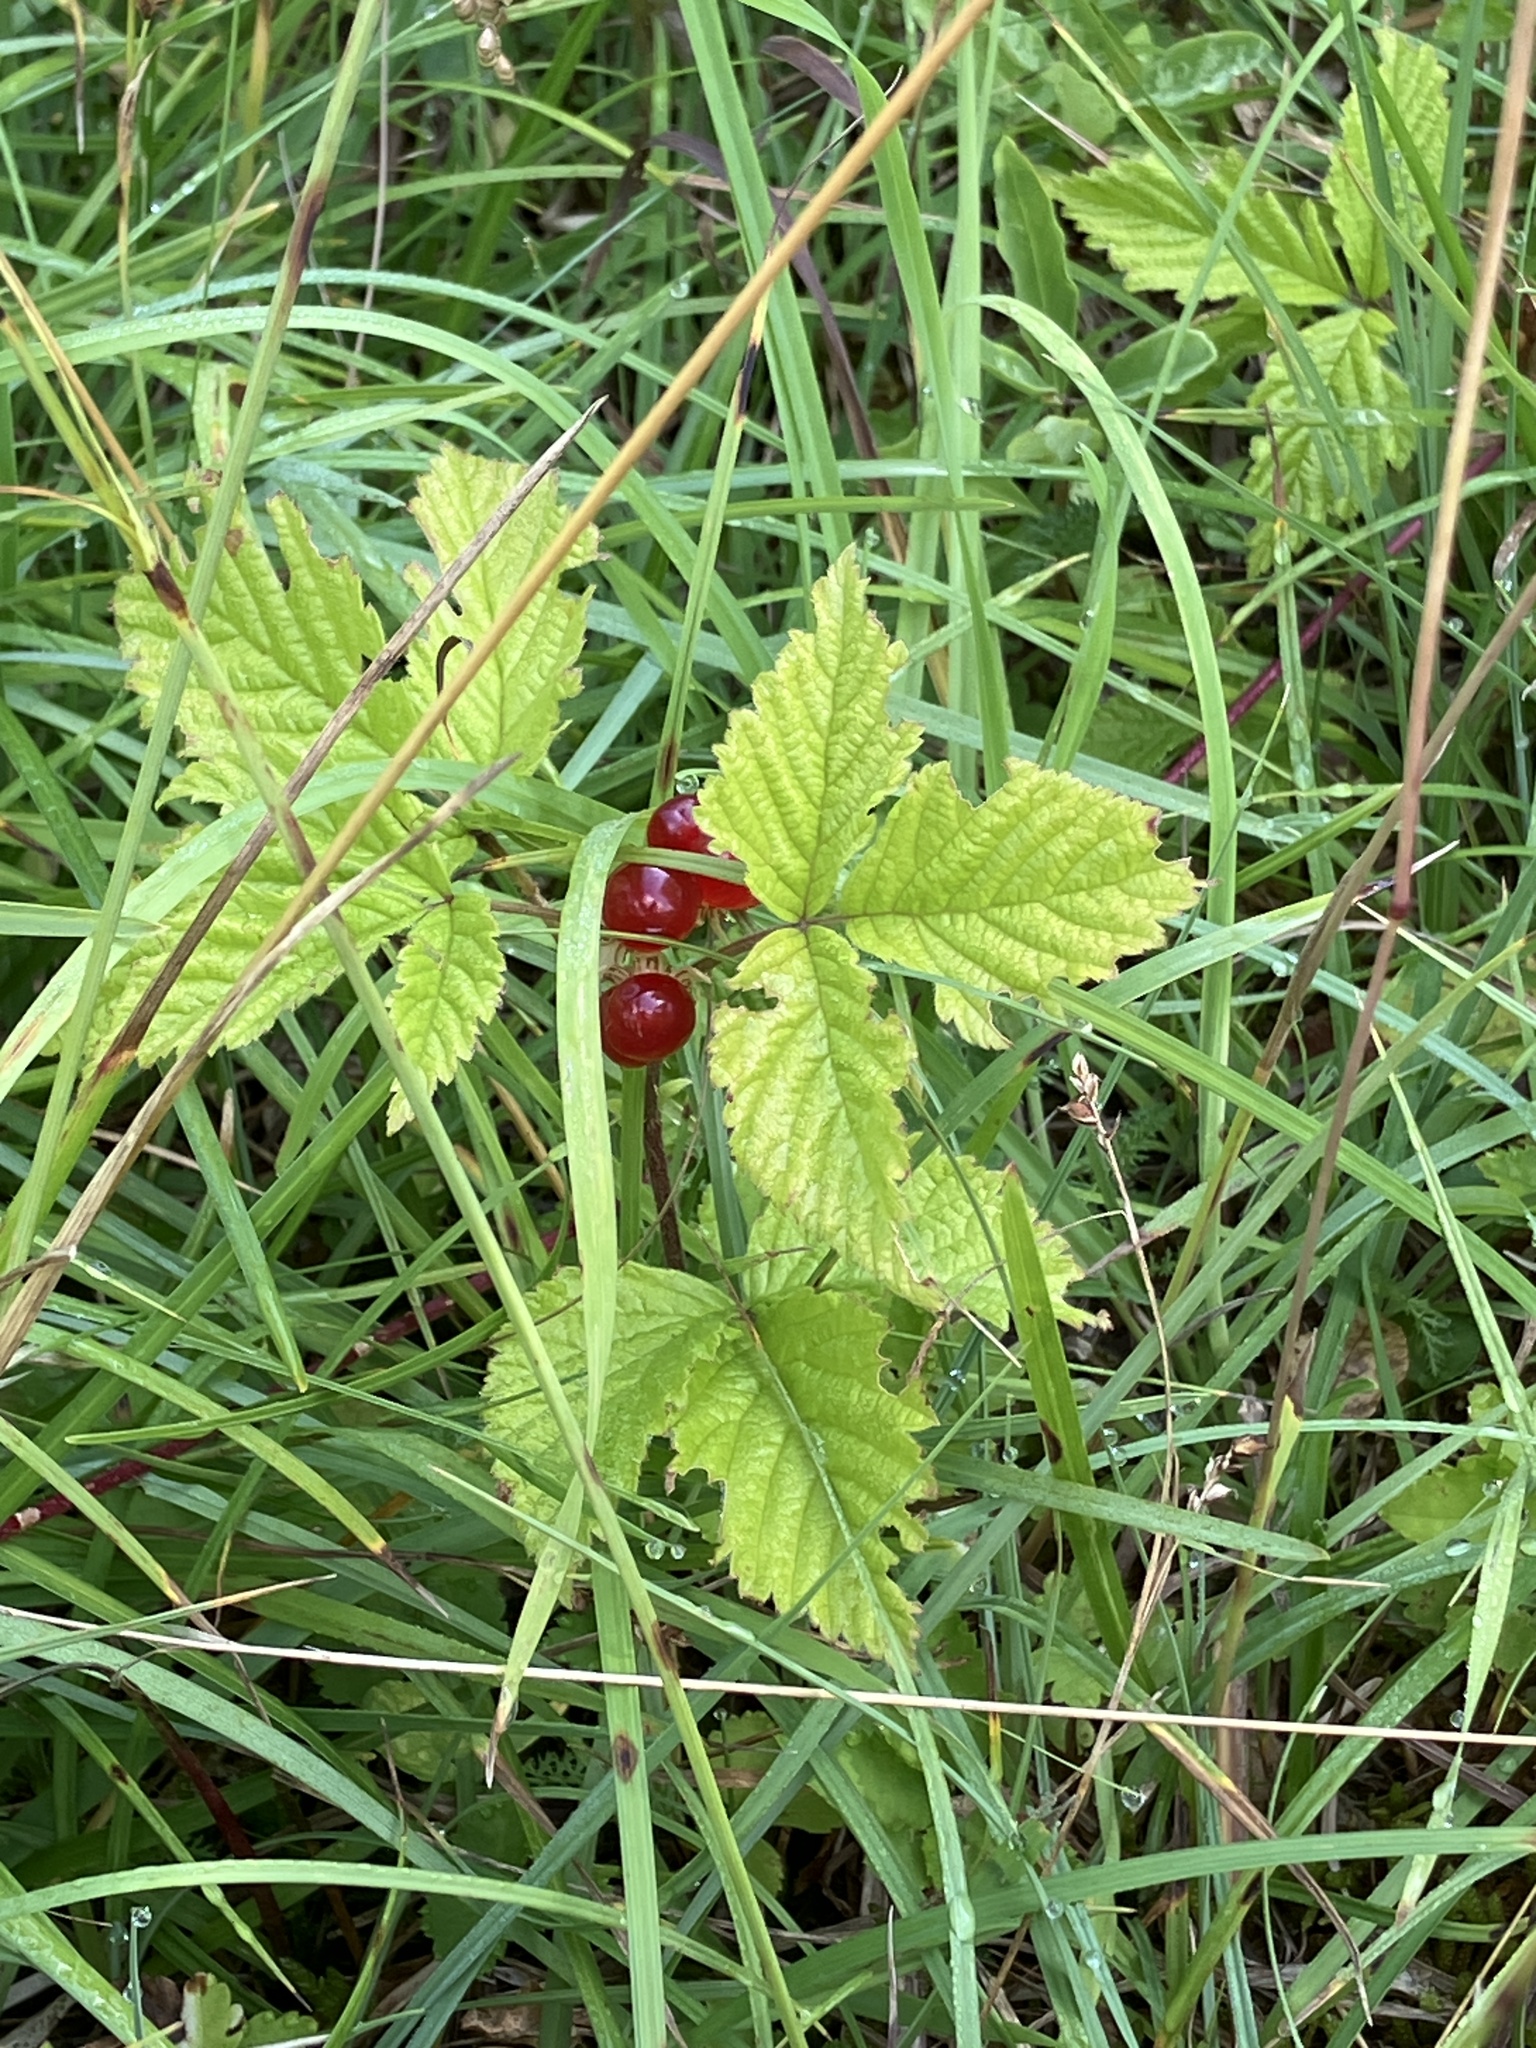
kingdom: Plantae
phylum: Tracheophyta
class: Magnoliopsida
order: Rosales
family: Rosaceae
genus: Rubus
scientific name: Rubus saxatilis
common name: Stone bramble
